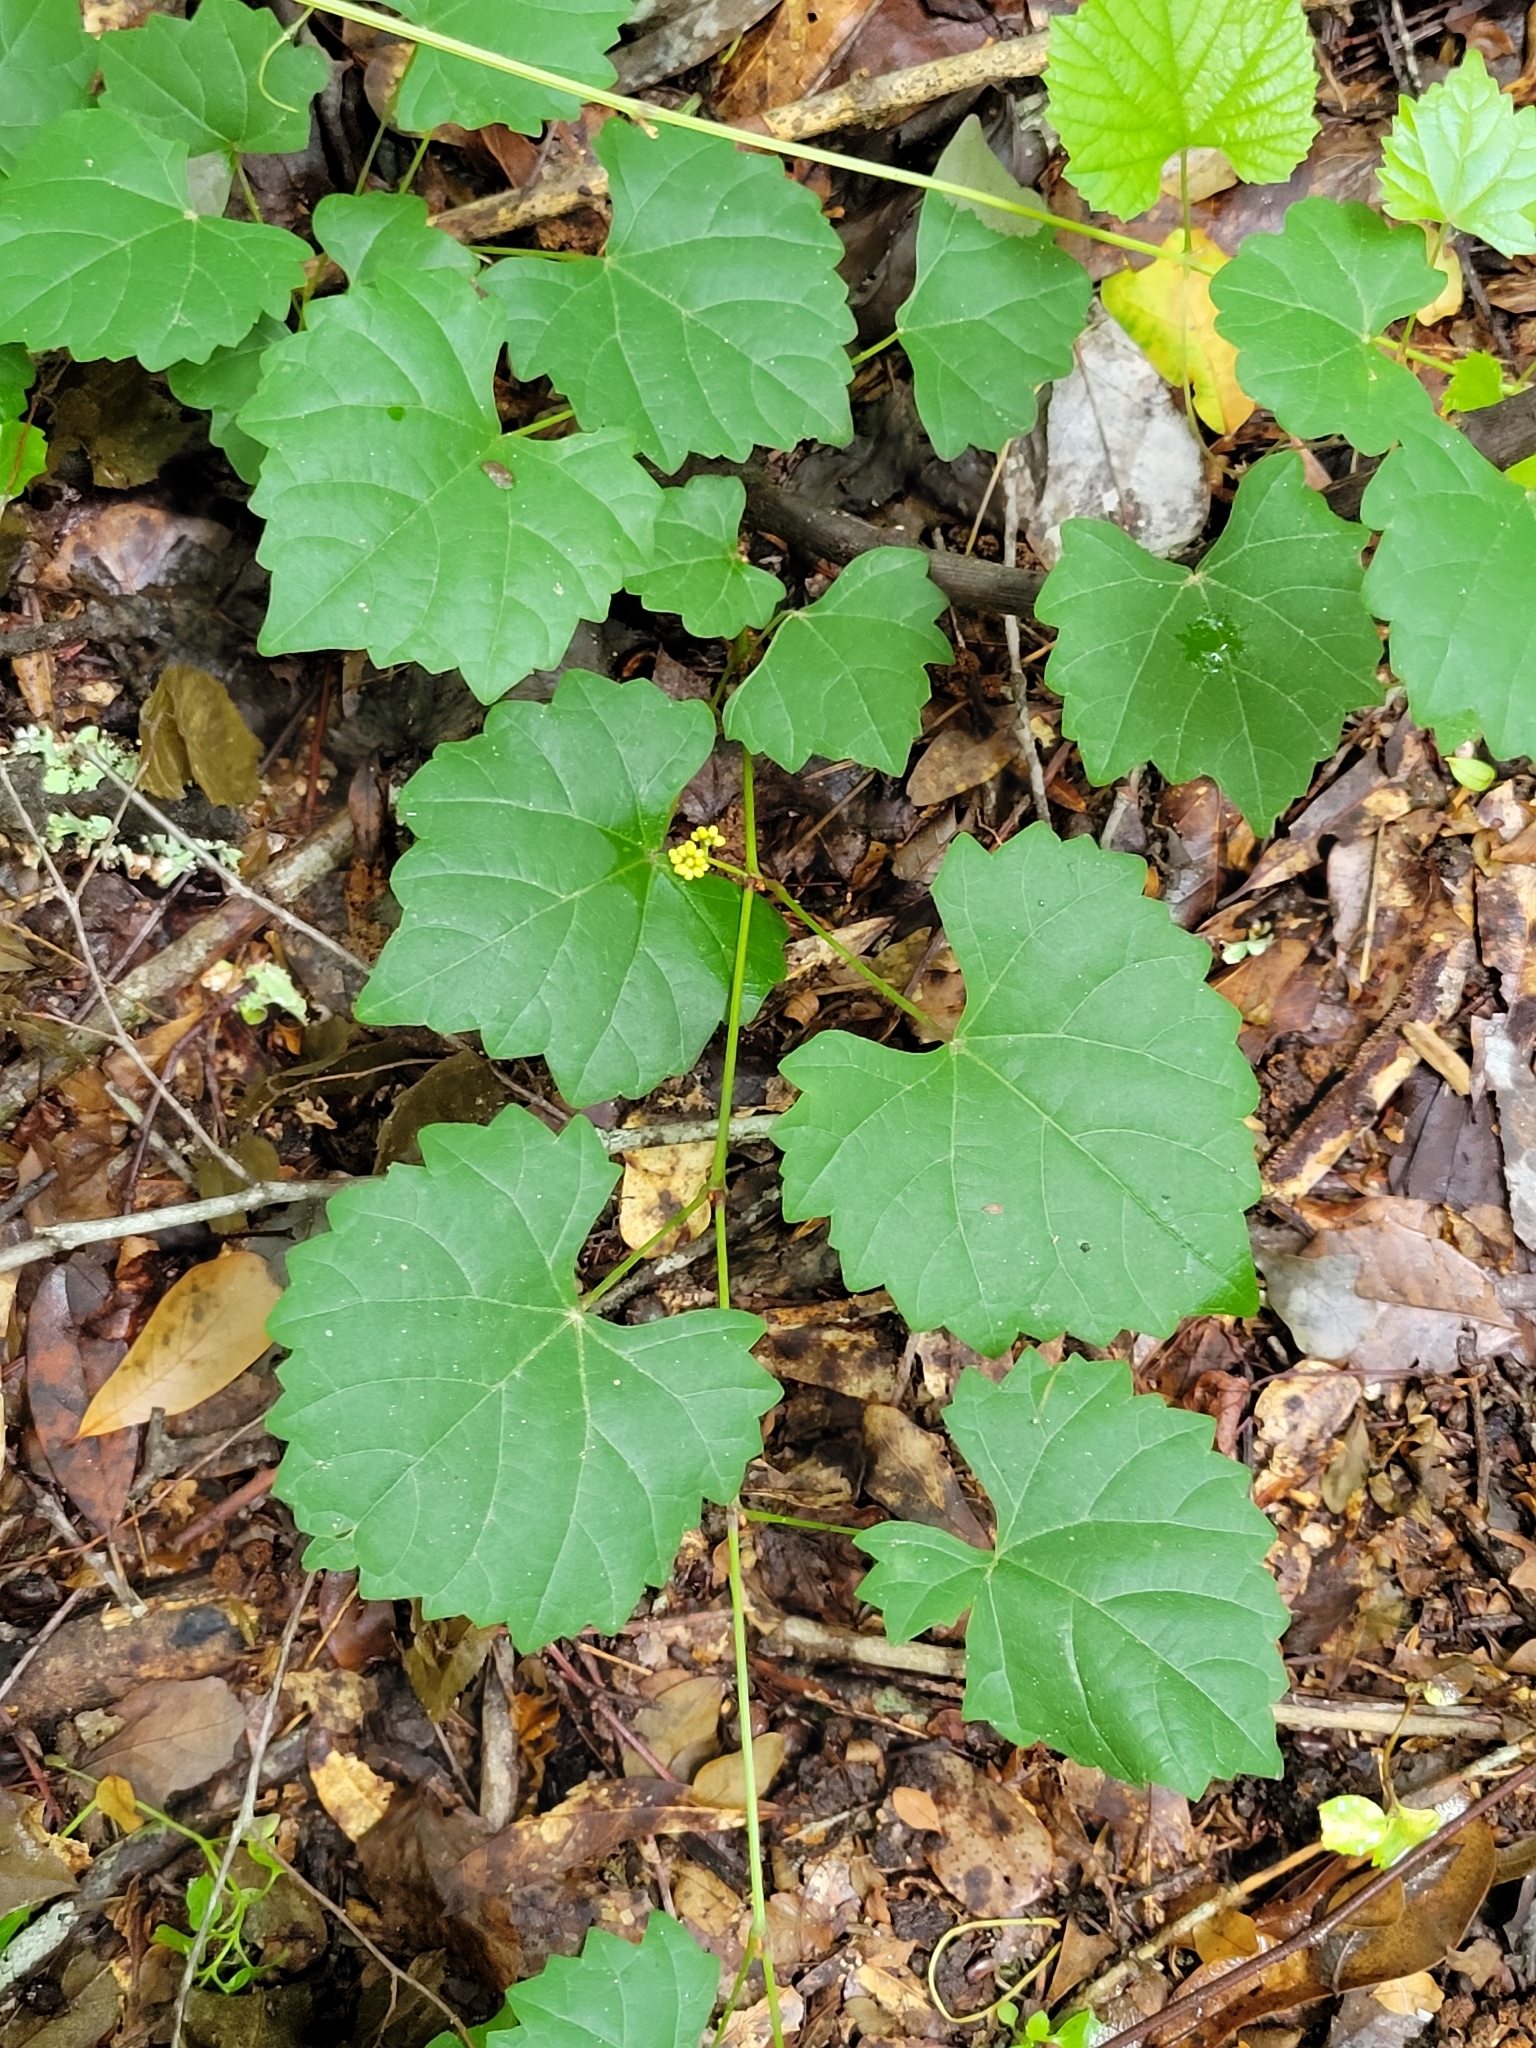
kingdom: Plantae
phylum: Tracheophyta
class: Magnoliopsida
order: Vitales
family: Vitaceae
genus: Vitis
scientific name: Vitis rotundifolia
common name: Muscadine grape
